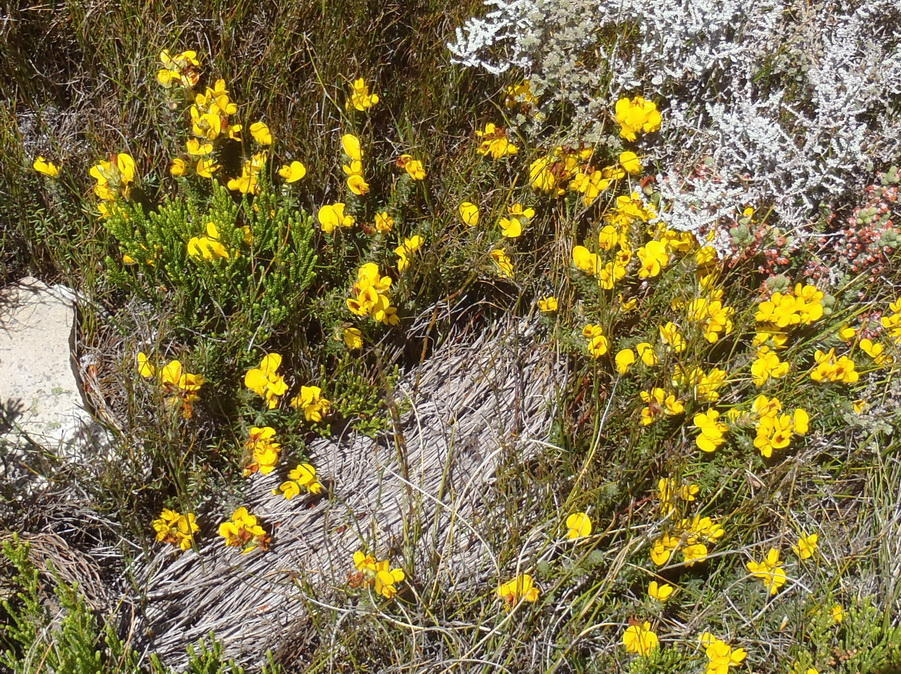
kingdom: Plantae
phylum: Tracheophyta
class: Magnoliopsida
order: Fabales
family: Fabaceae
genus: Cyclopia
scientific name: Cyclopia bolusii
